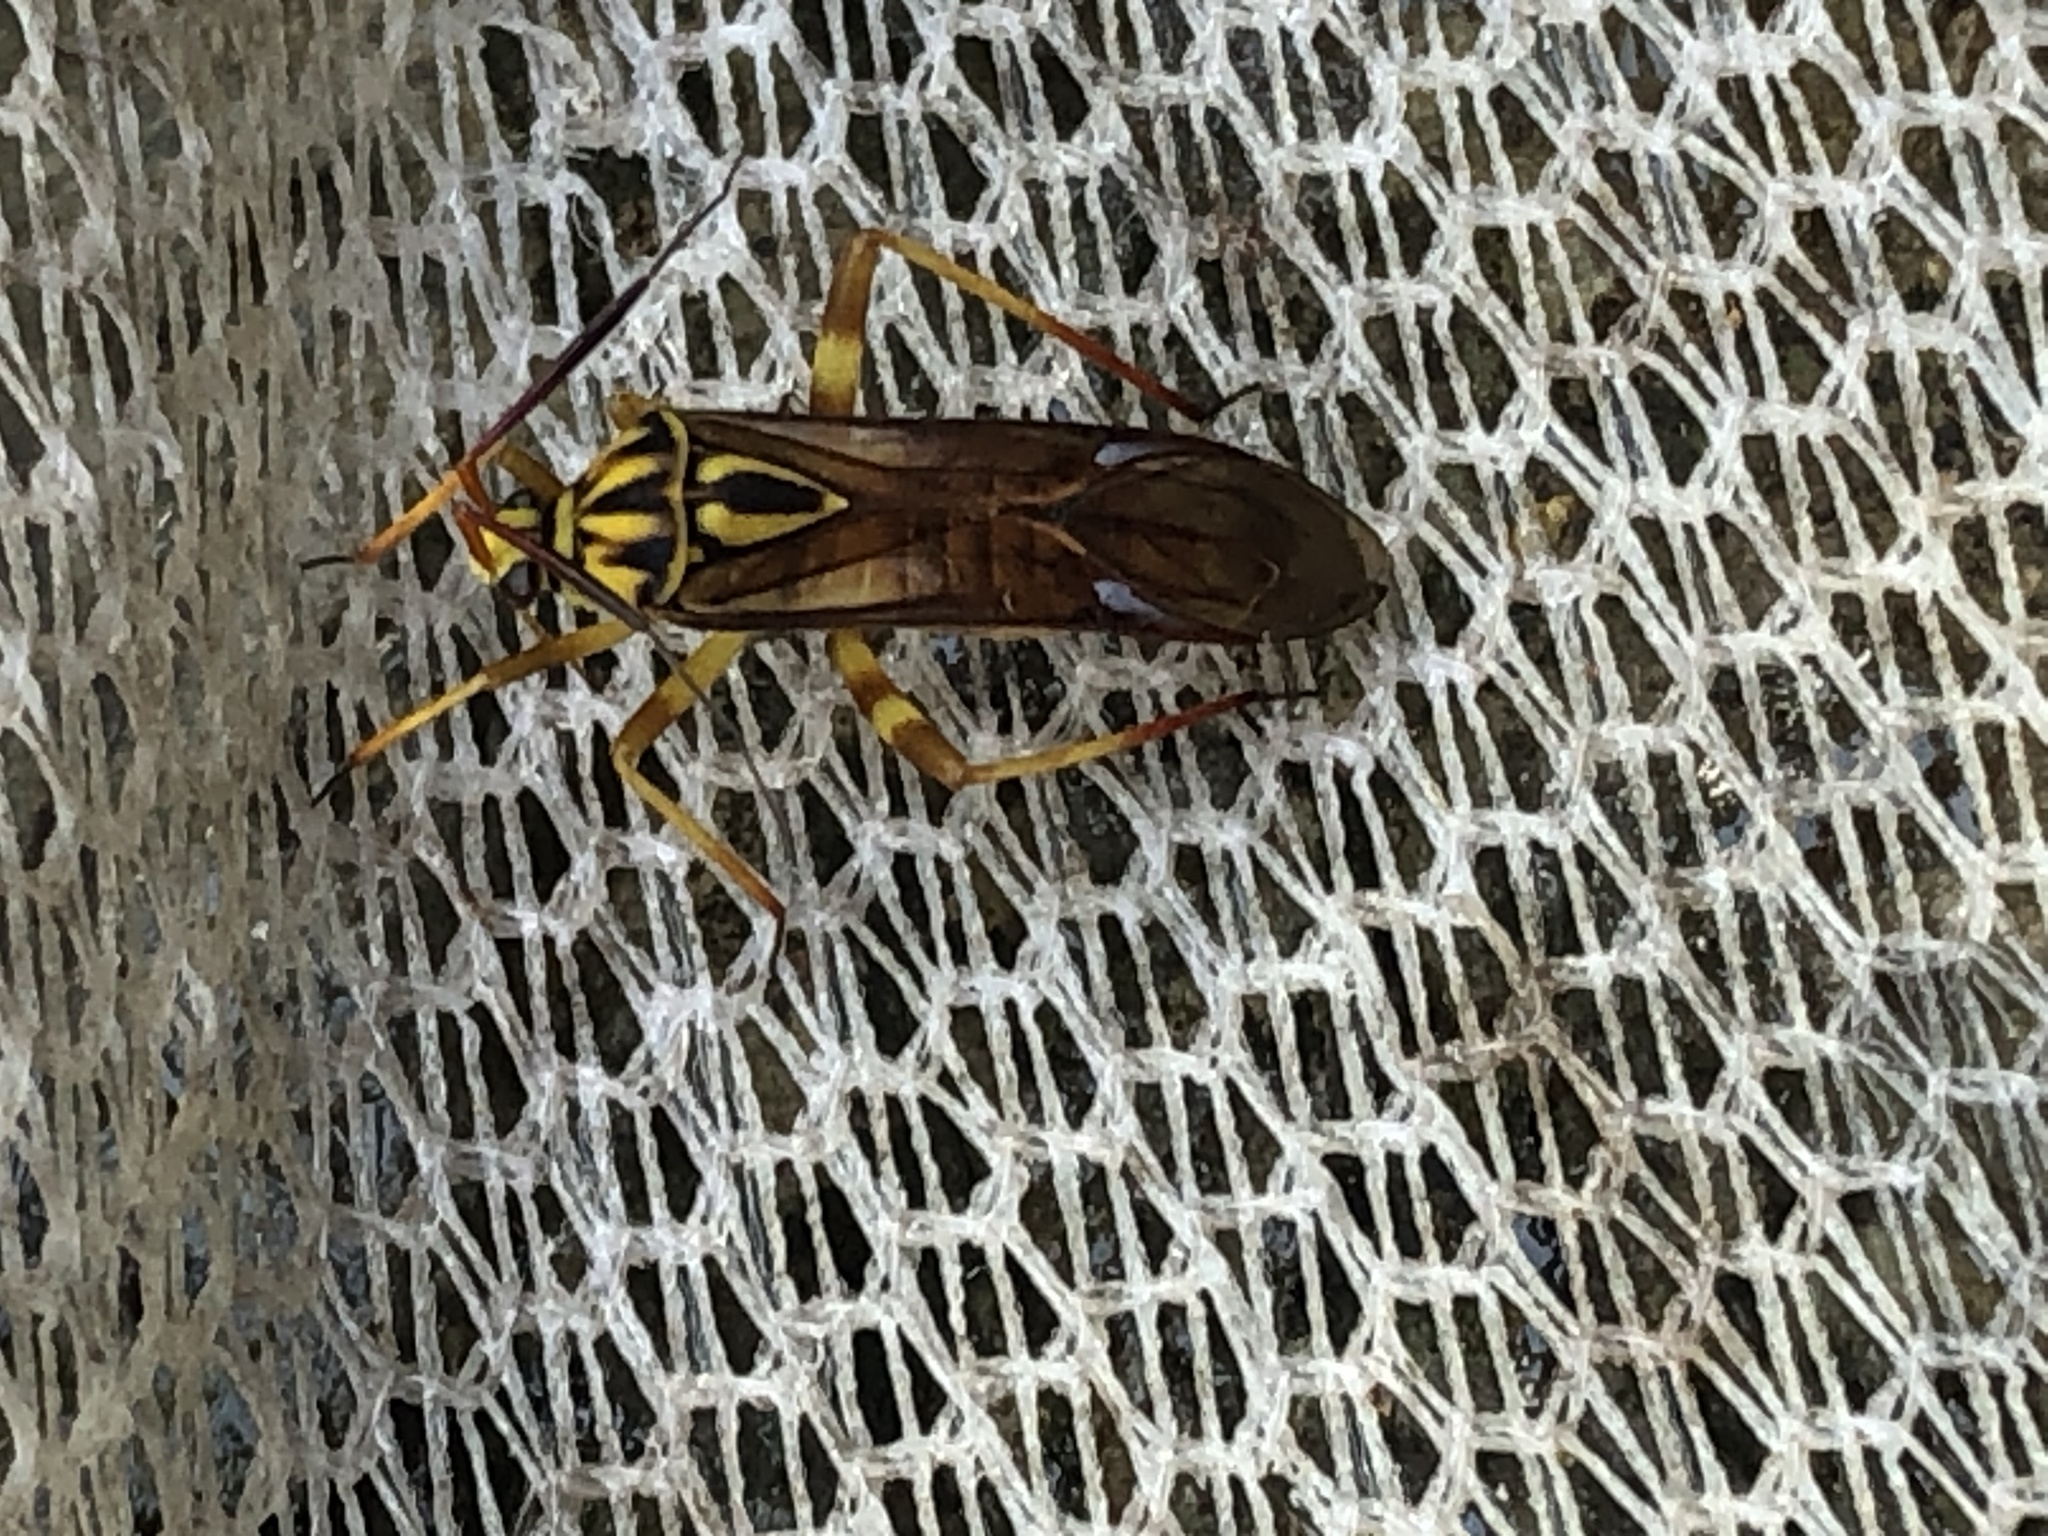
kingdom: Animalia
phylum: Arthropoda
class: Insecta
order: Hemiptera
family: Miridae
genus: Iridopeplus
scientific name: Iridopeplus pellucidipennis
